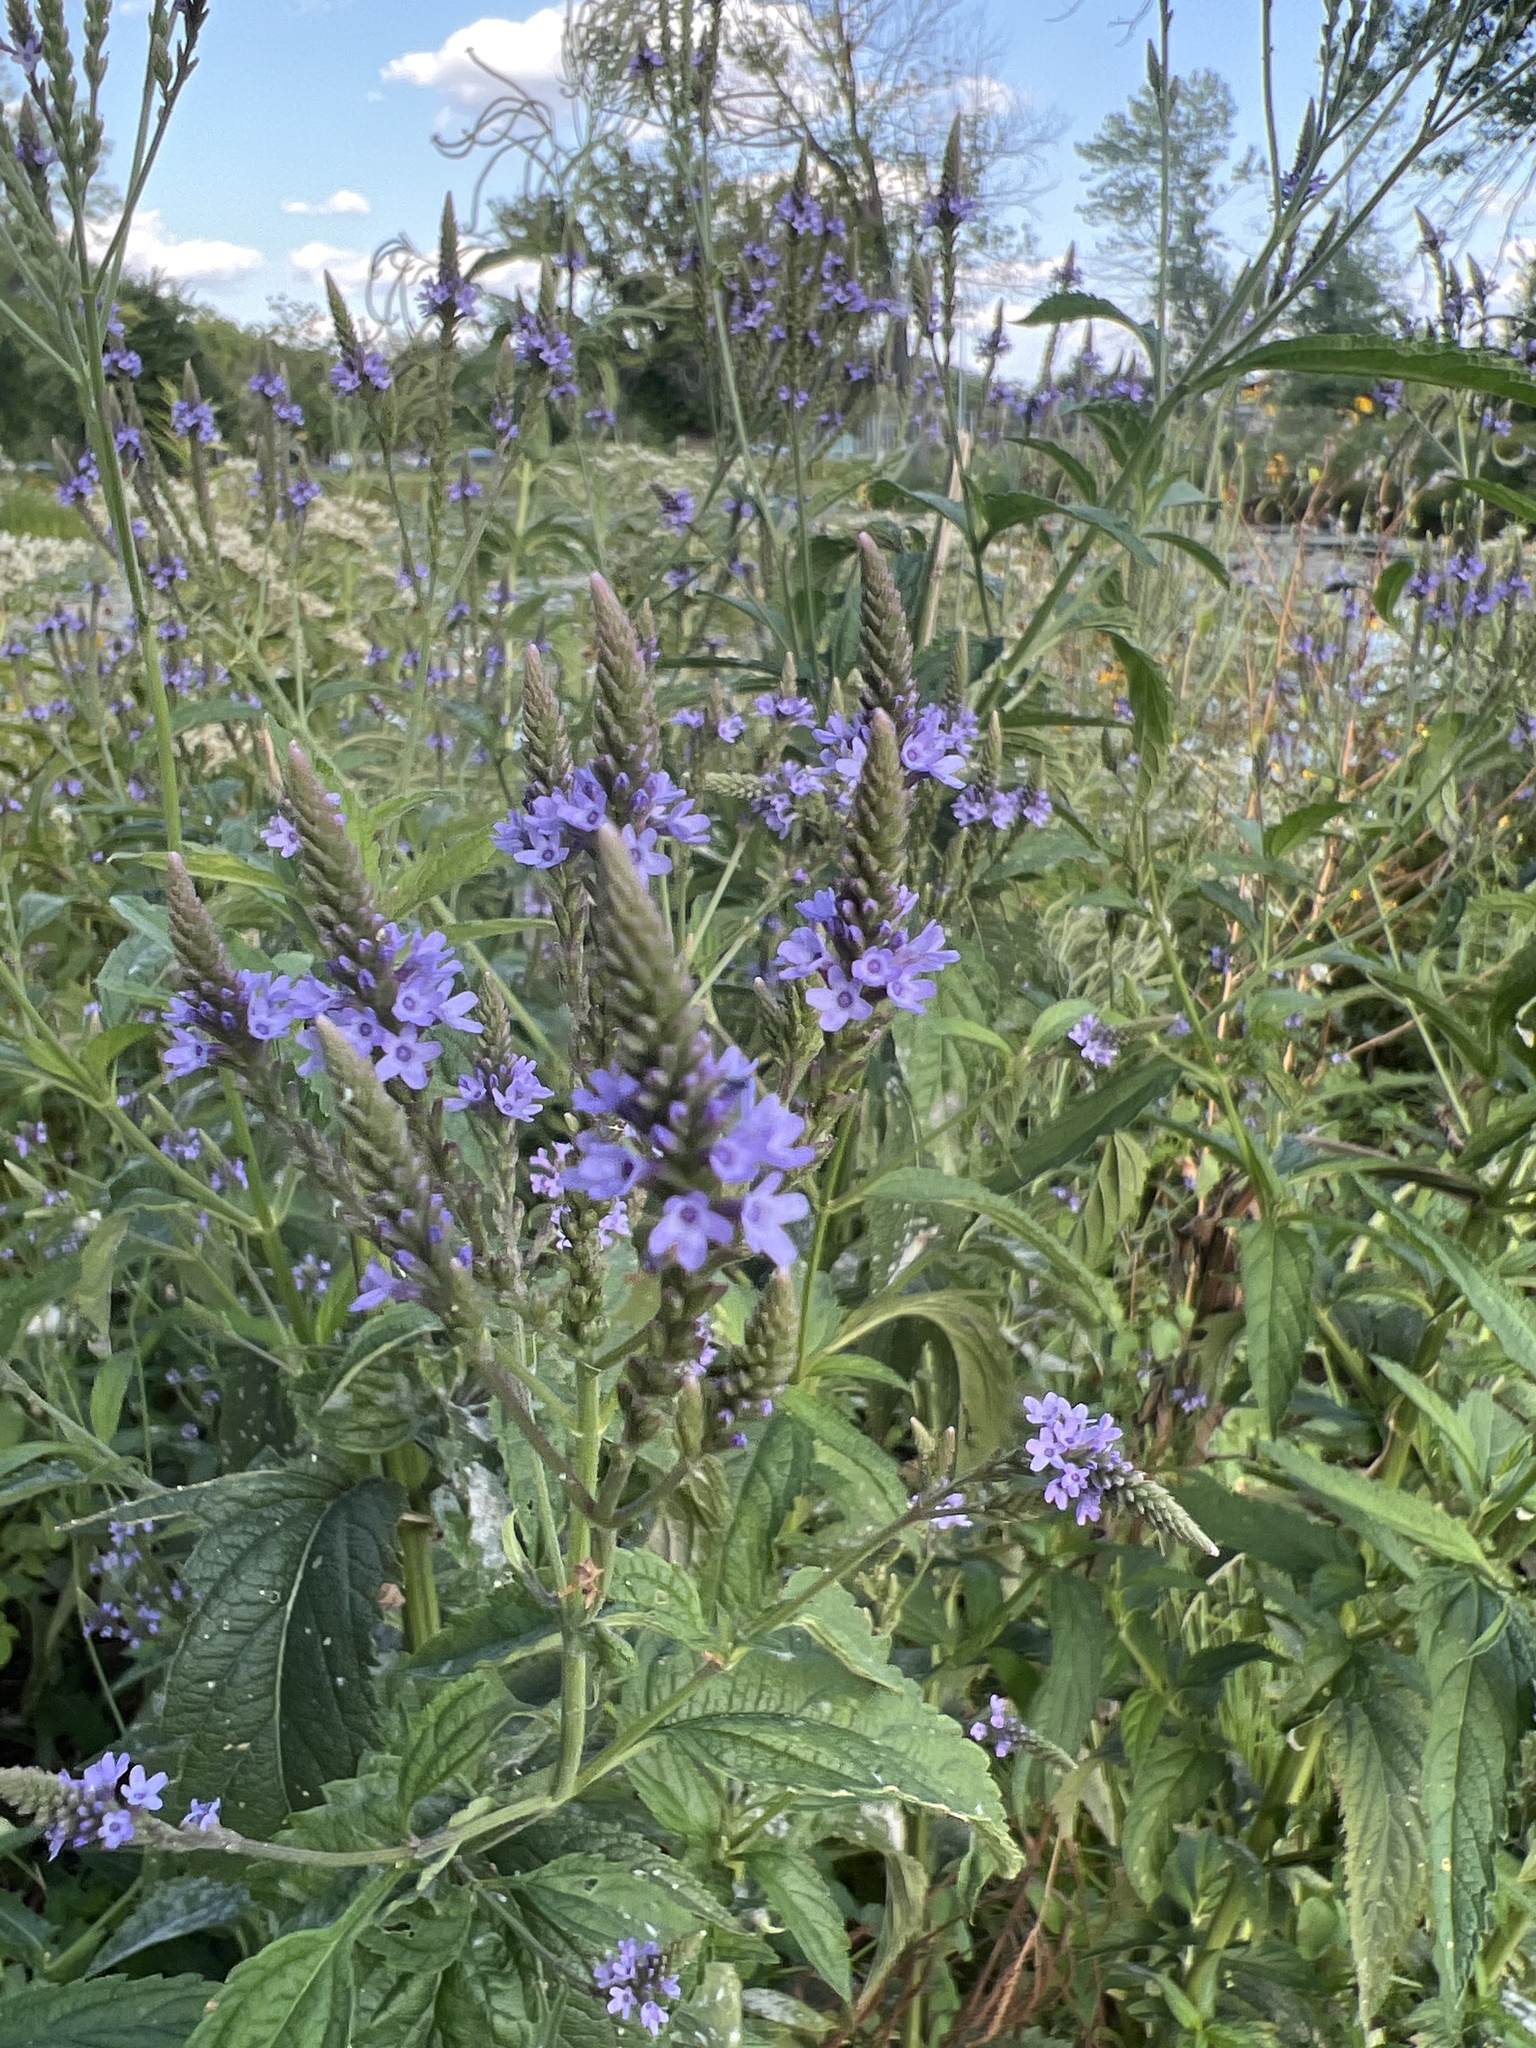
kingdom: Plantae
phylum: Tracheophyta
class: Magnoliopsida
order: Lamiales
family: Verbenaceae
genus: Verbena
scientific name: Verbena hastata
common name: American blue vervain
